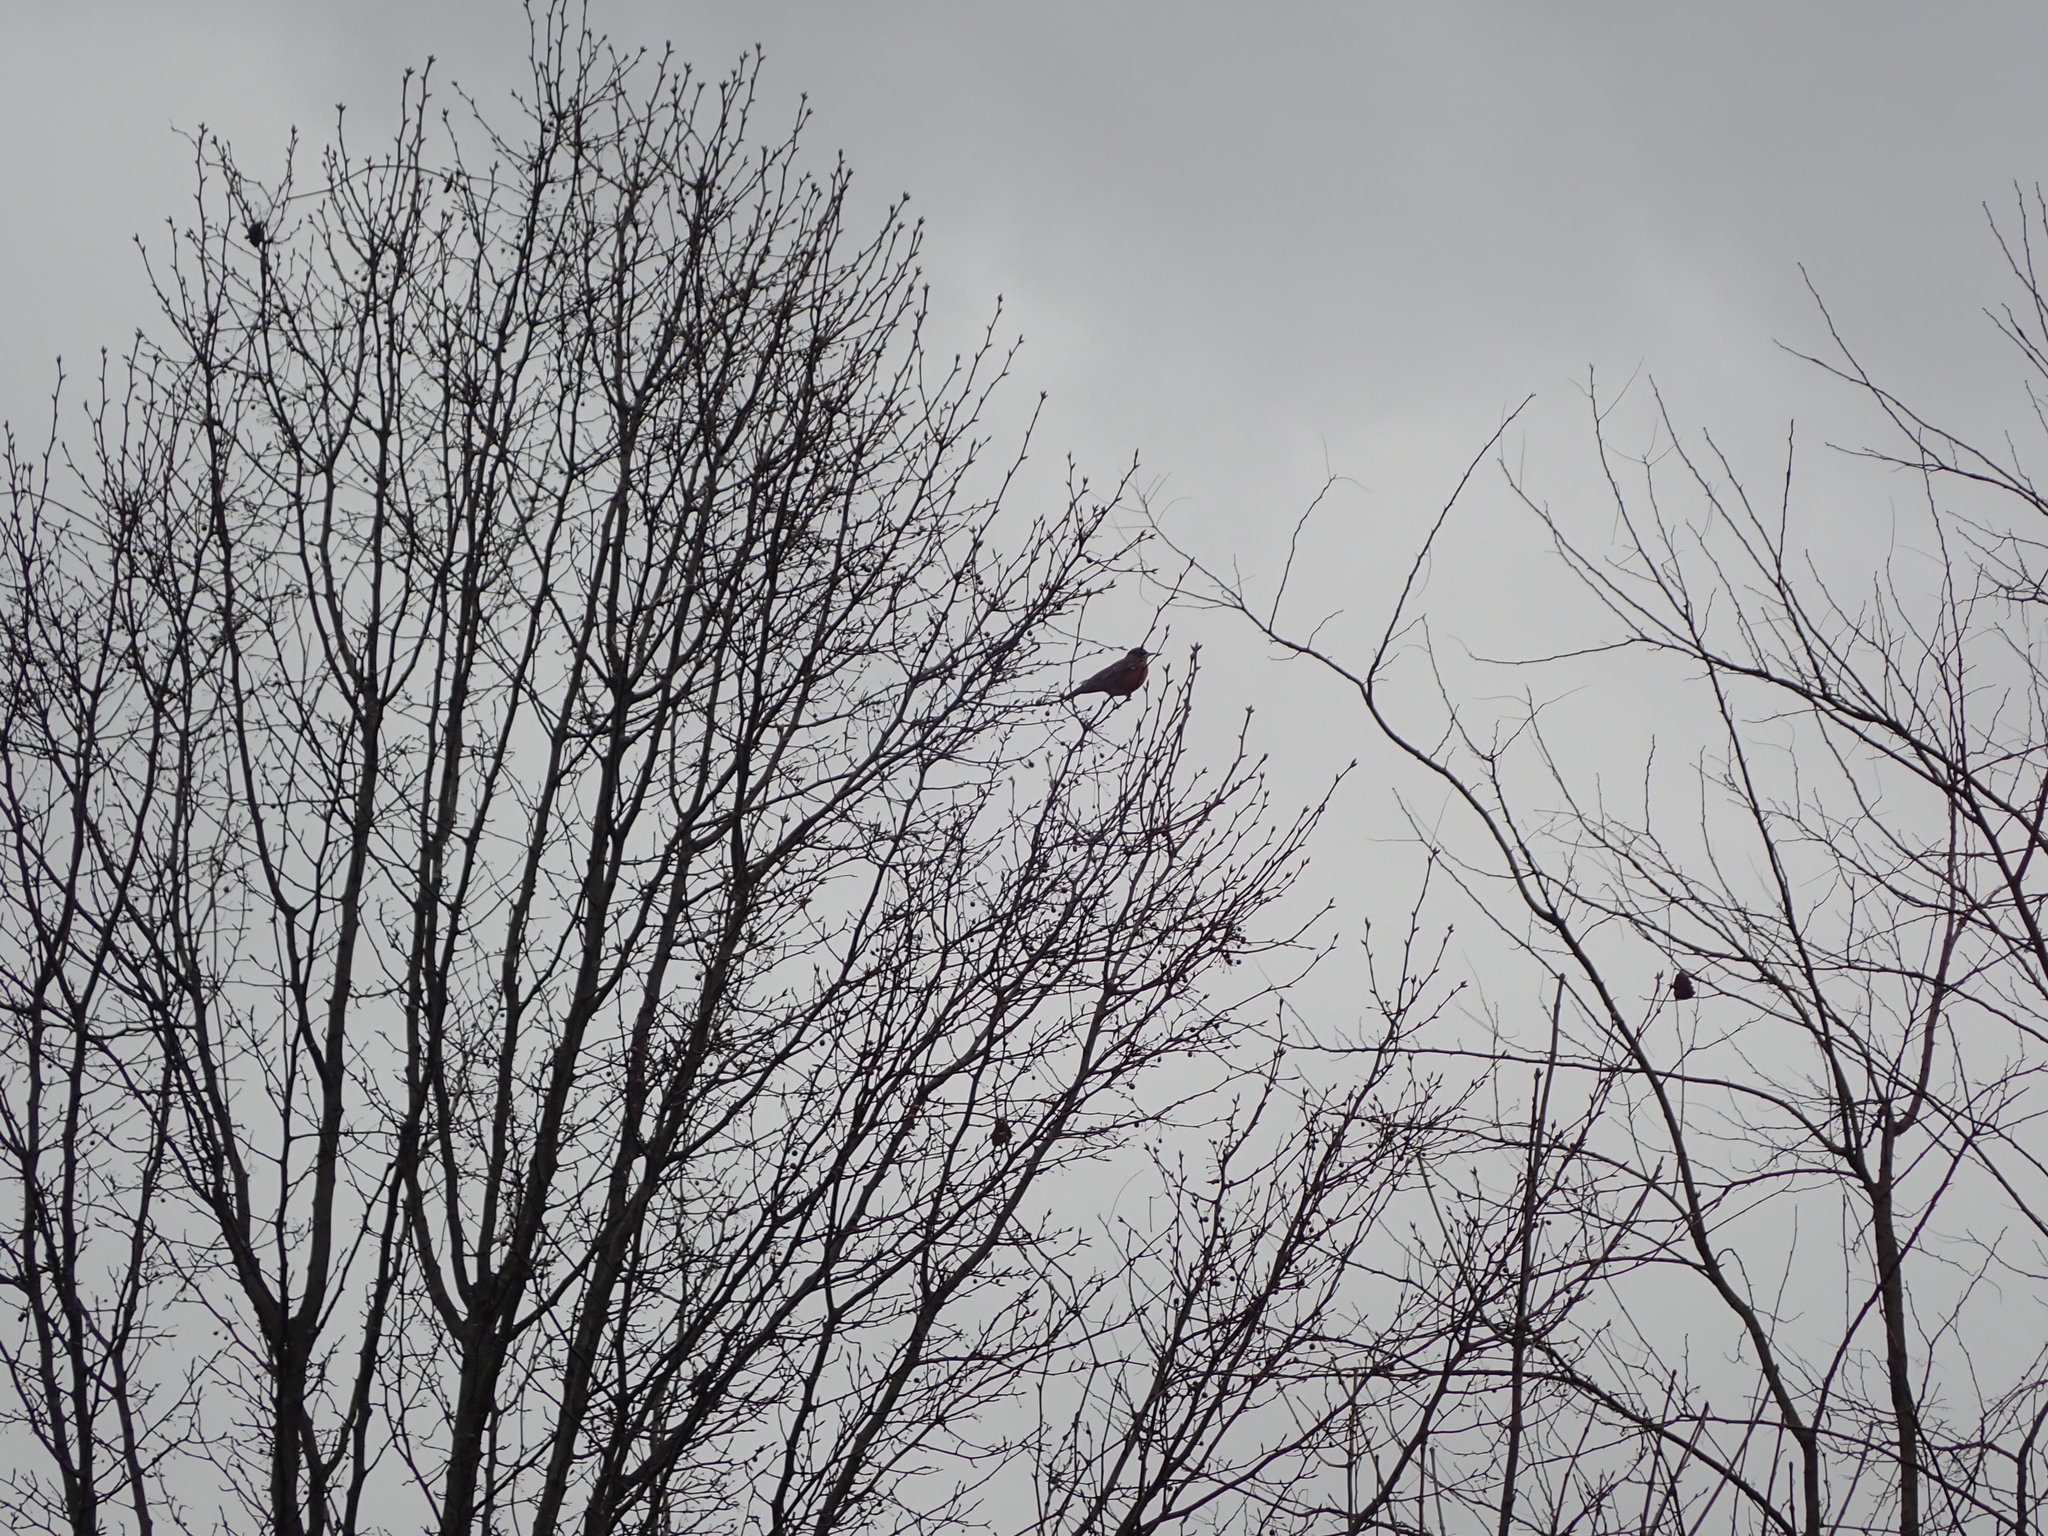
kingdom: Animalia
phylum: Chordata
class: Aves
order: Passeriformes
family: Turdidae
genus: Turdus
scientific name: Turdus migratorius
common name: American robin
